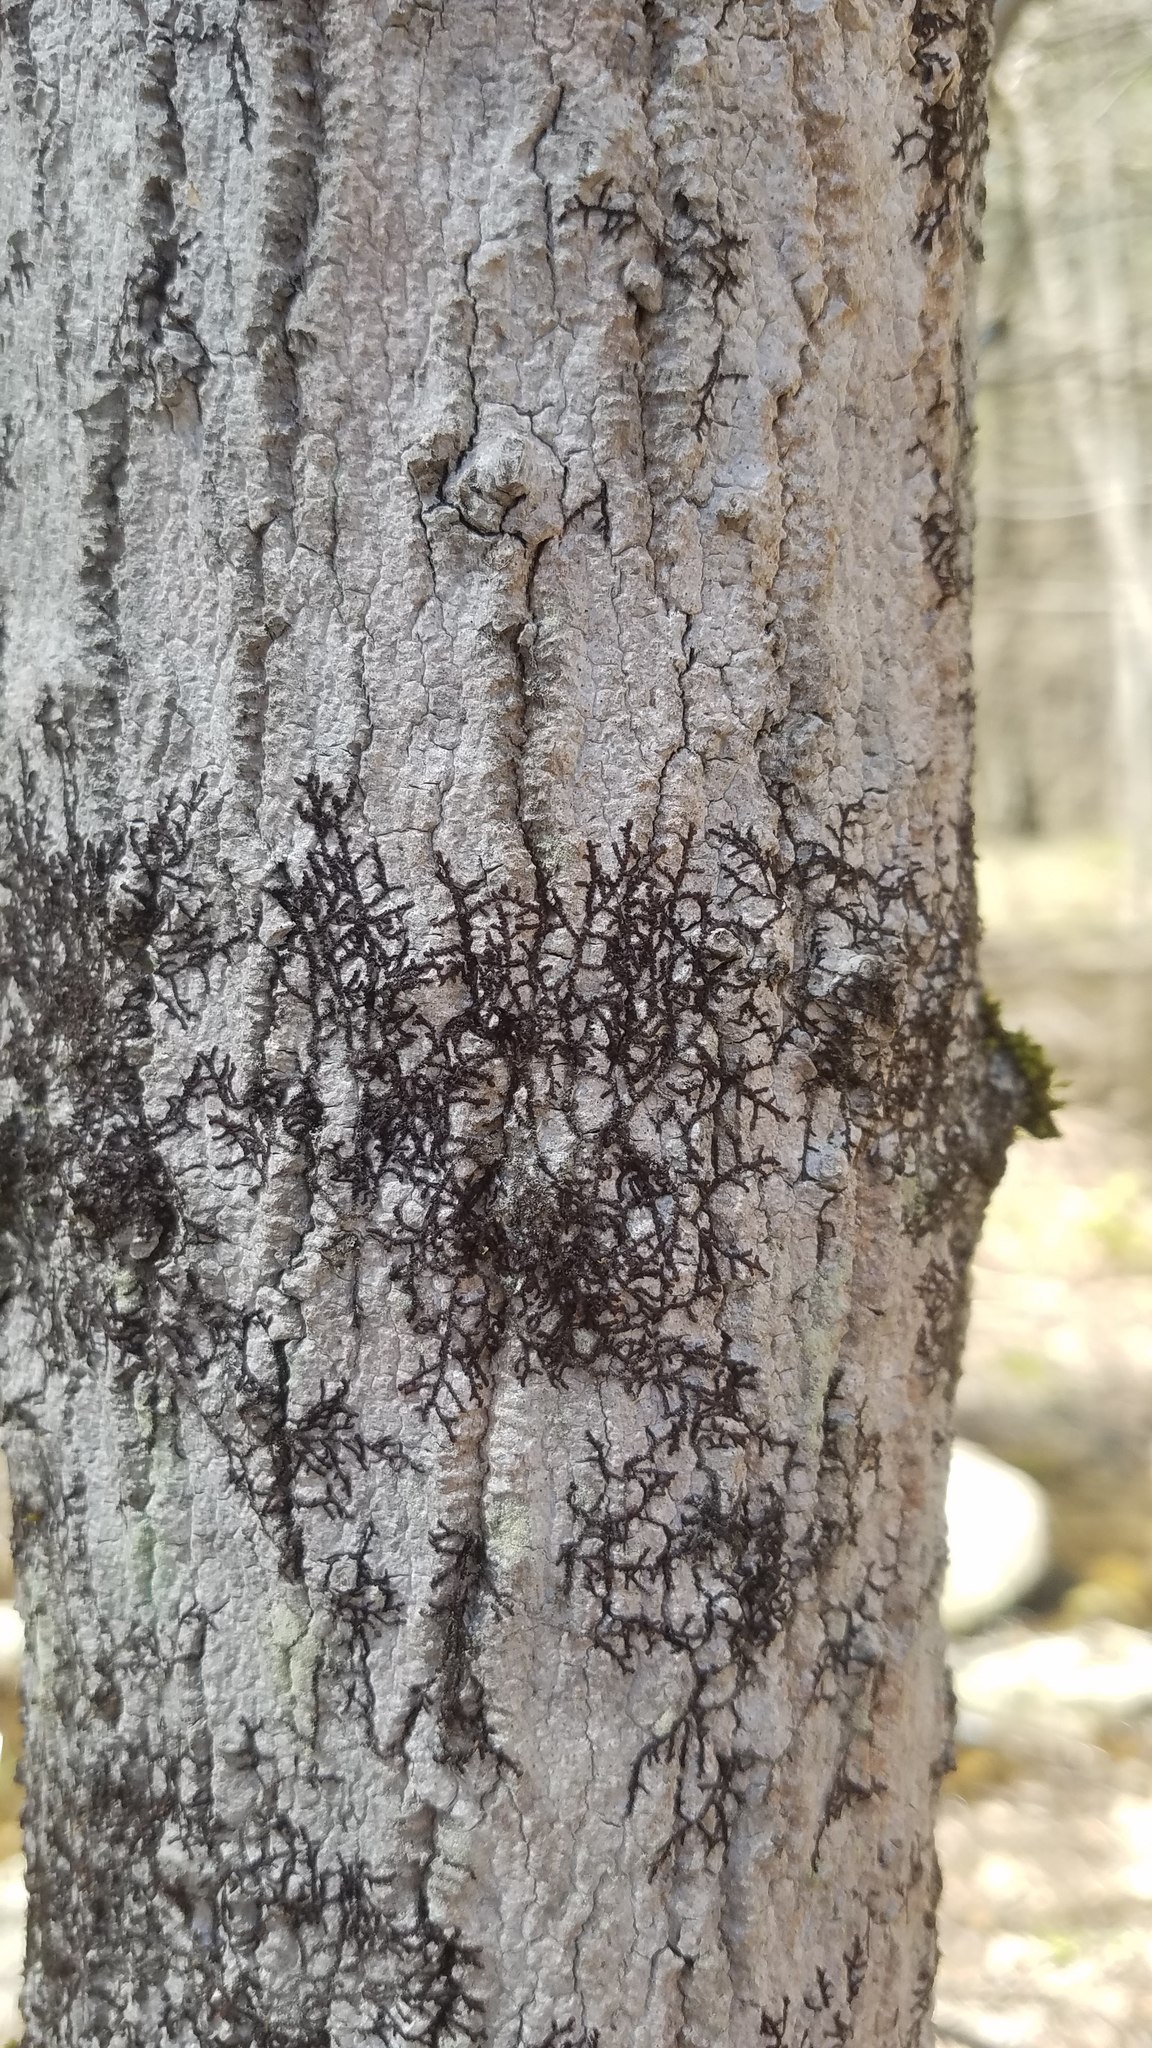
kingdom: Plantae
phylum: Marchantiophyta
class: Jungermanniopsida
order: Porellales
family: Frullaniaceae
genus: Frullania
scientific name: Frullania eboracensis
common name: New york scalewort
